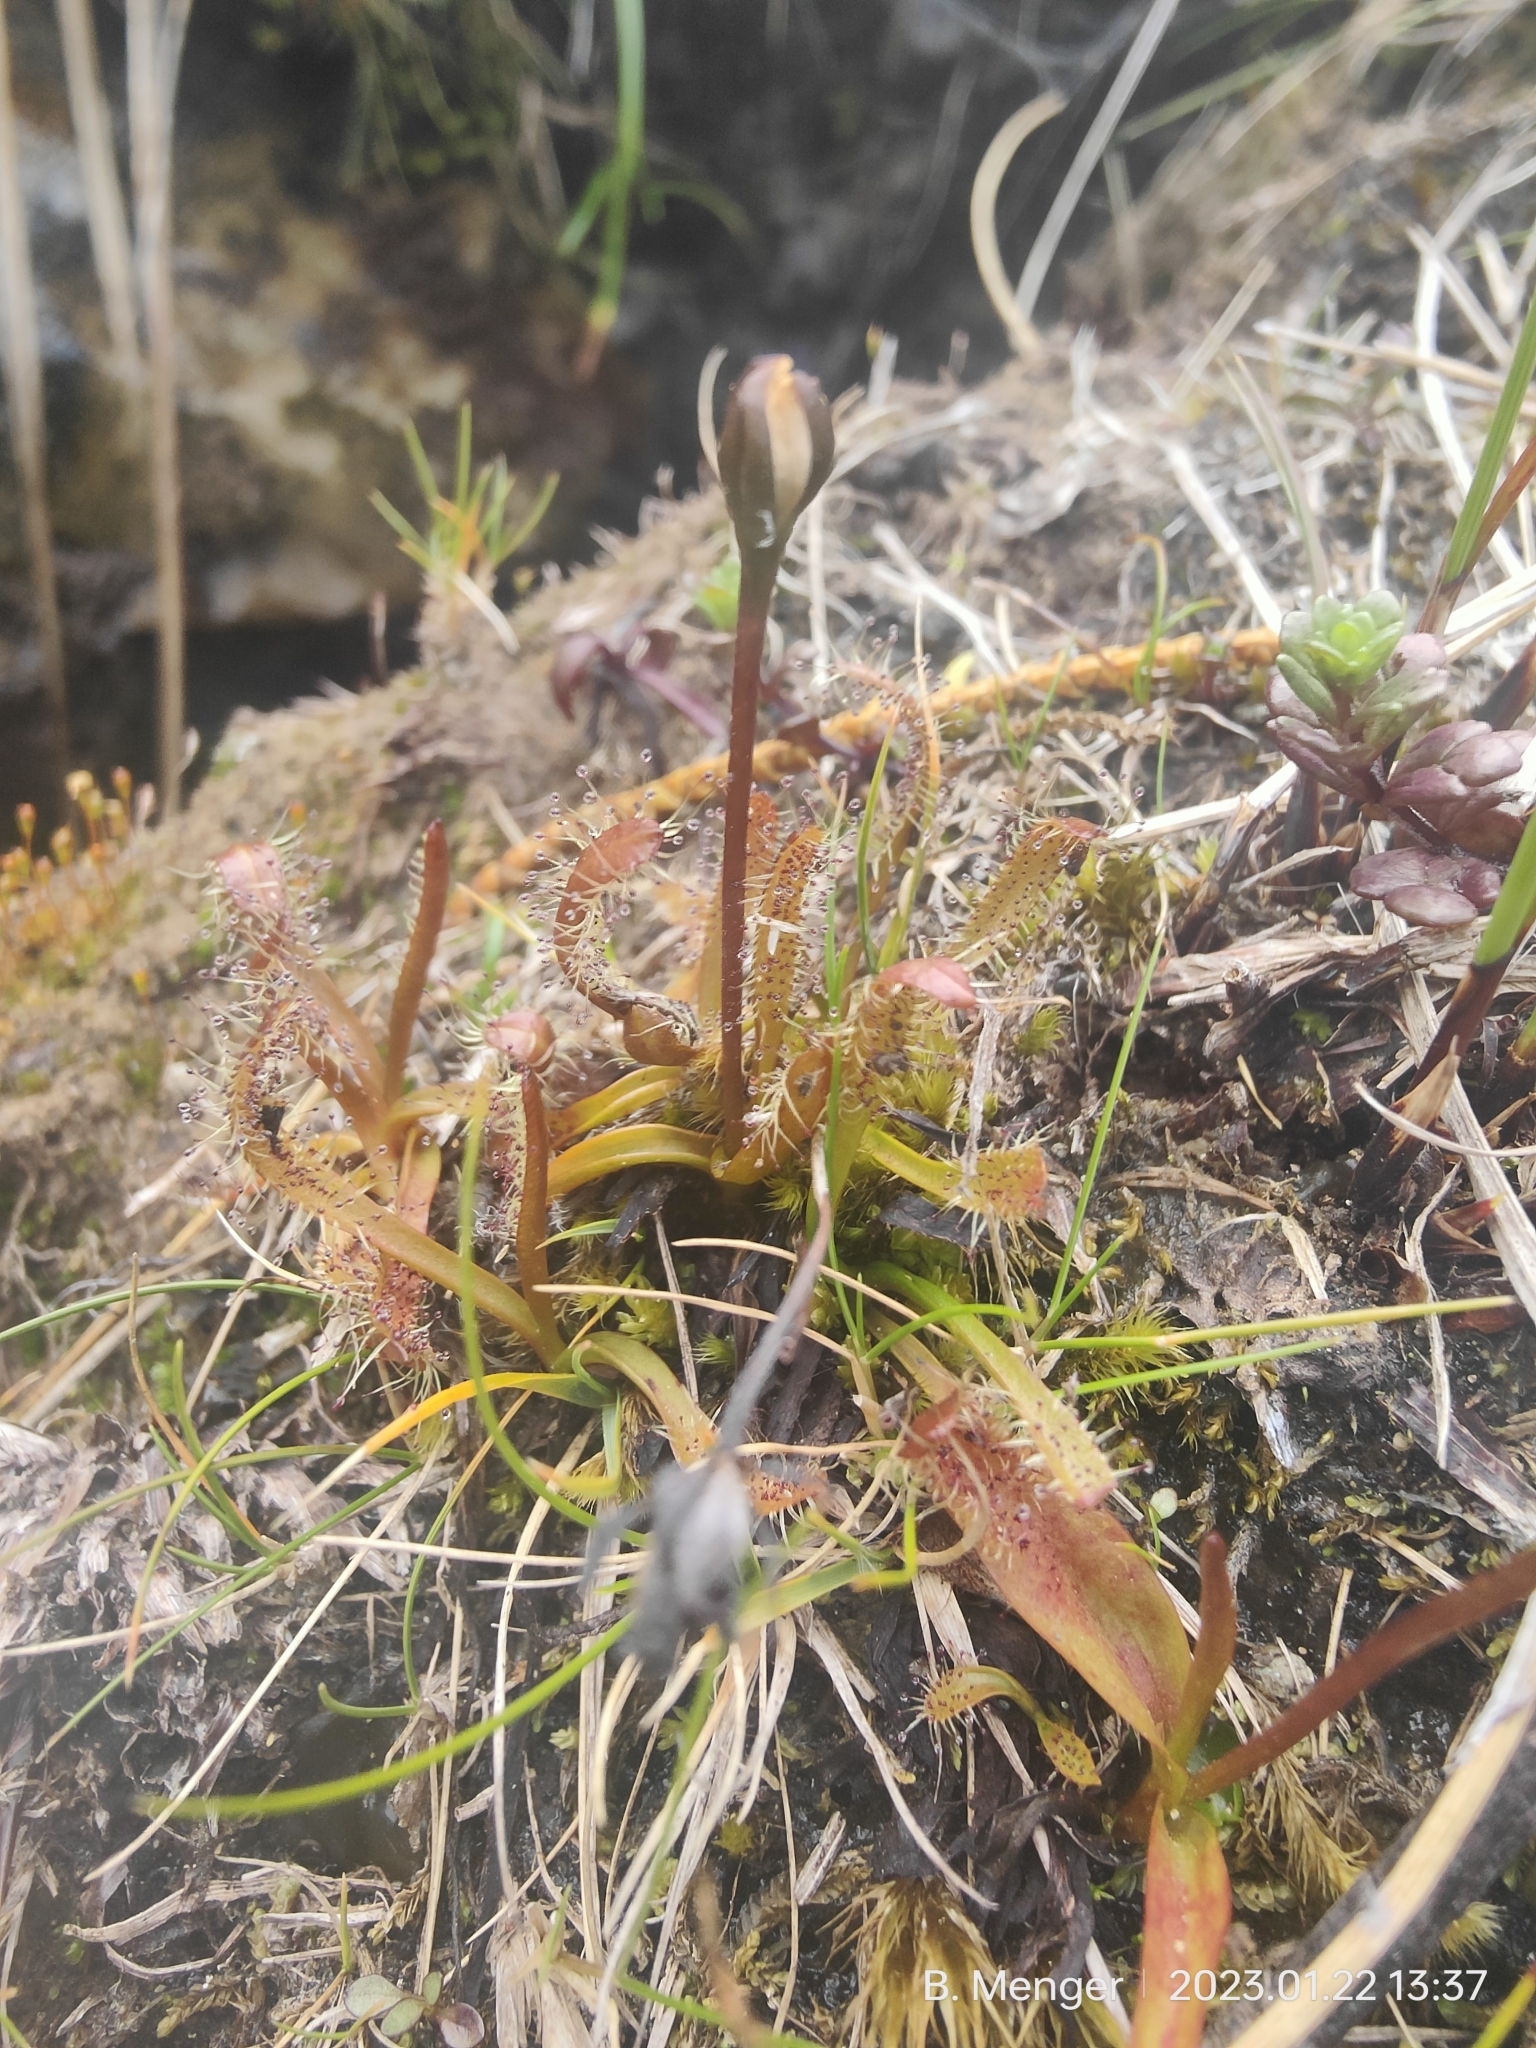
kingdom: Plantae
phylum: Tracheophyta
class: Magnoliopsida
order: Caryophyllales
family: Droseraceae
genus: Drosera
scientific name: Drosera arcturi
